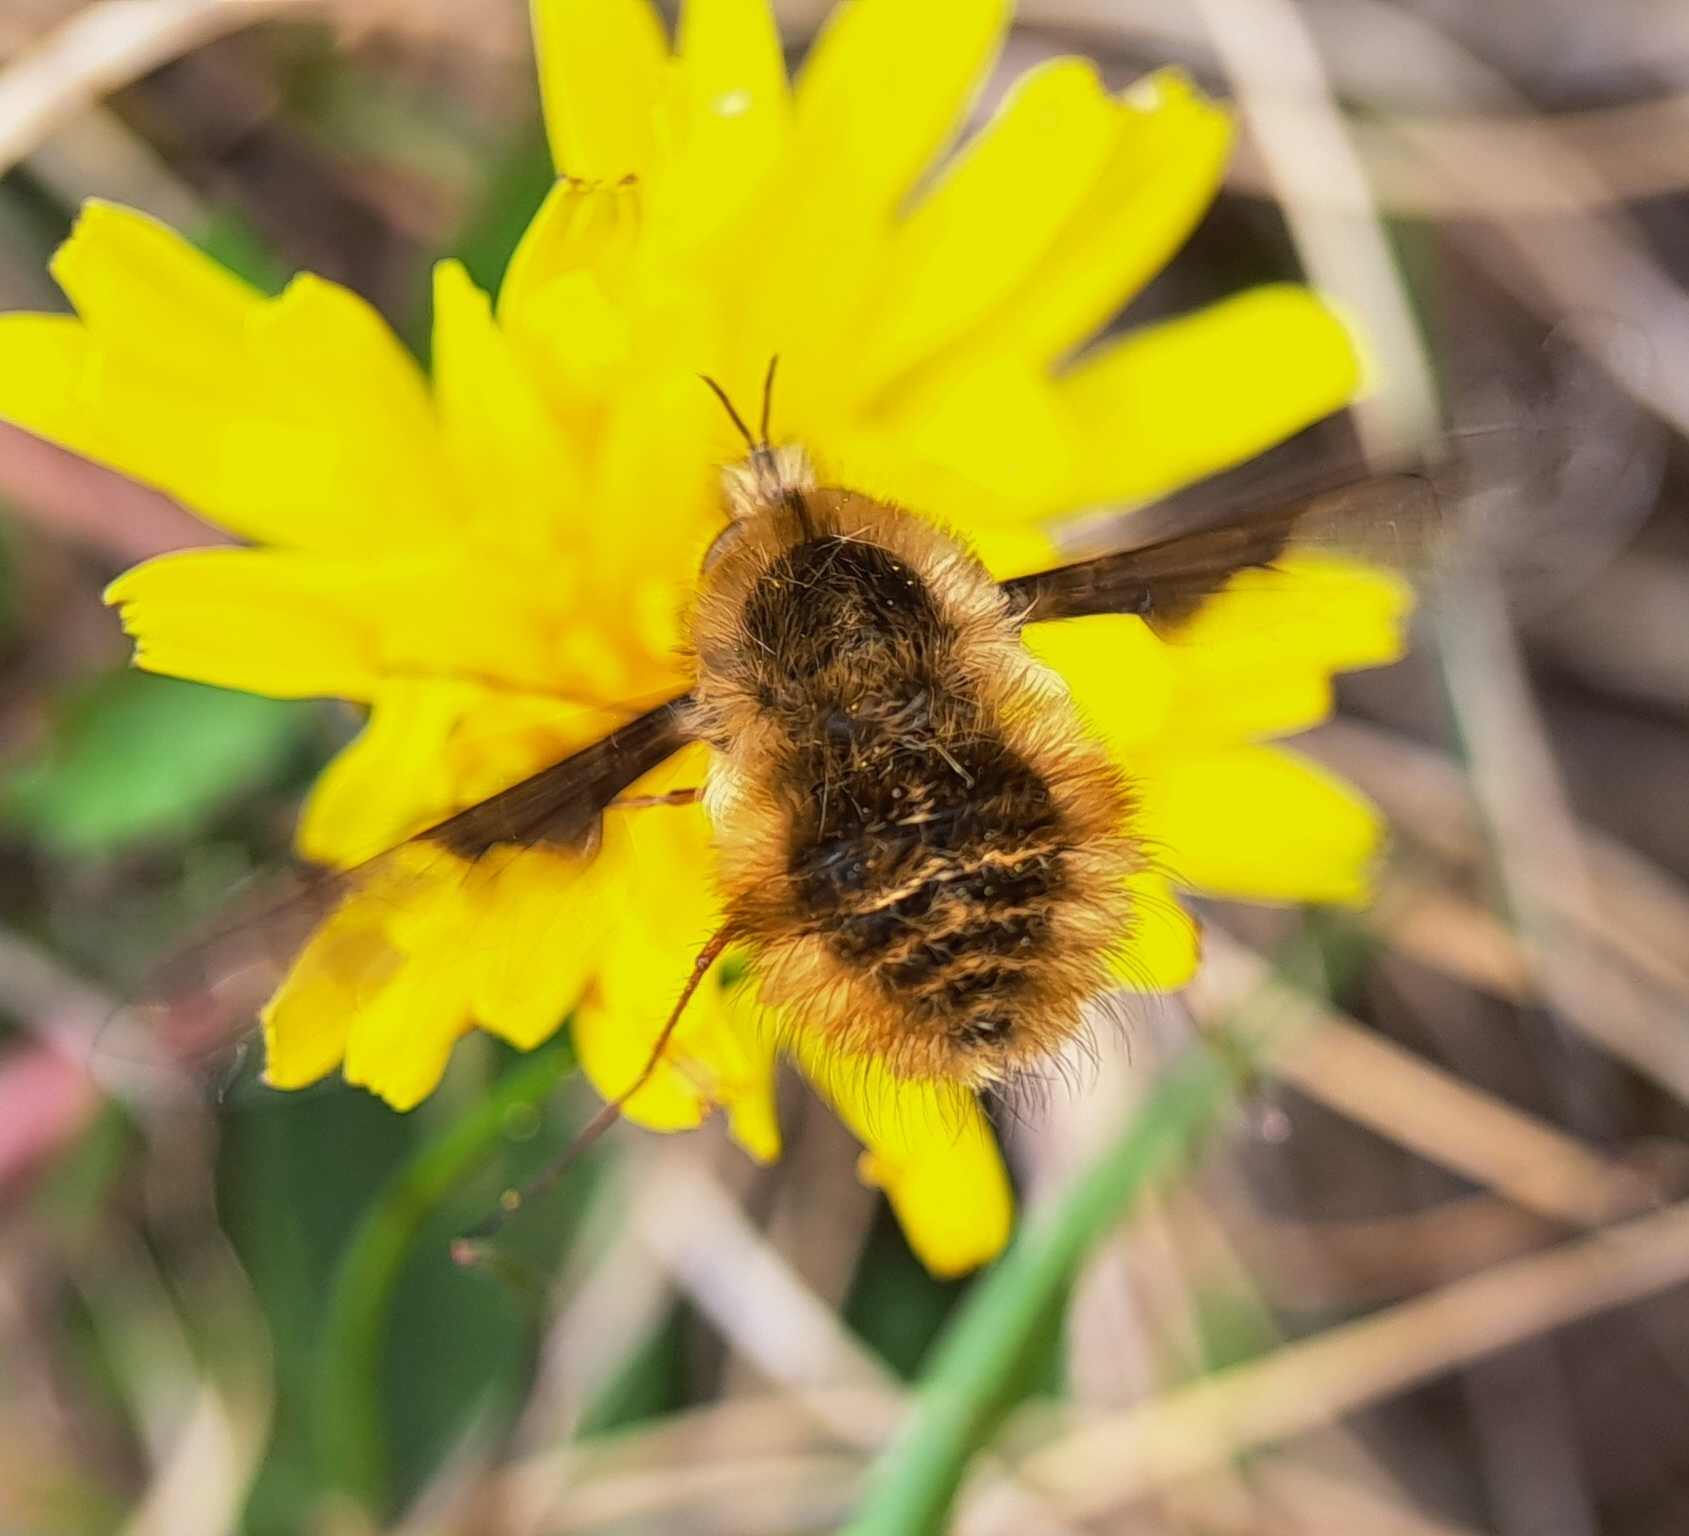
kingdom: Animalia
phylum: Arthropoda
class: Insecta
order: Diptera
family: Bombyliidae
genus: Bombylius
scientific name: Bombylius major
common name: Bee fly
